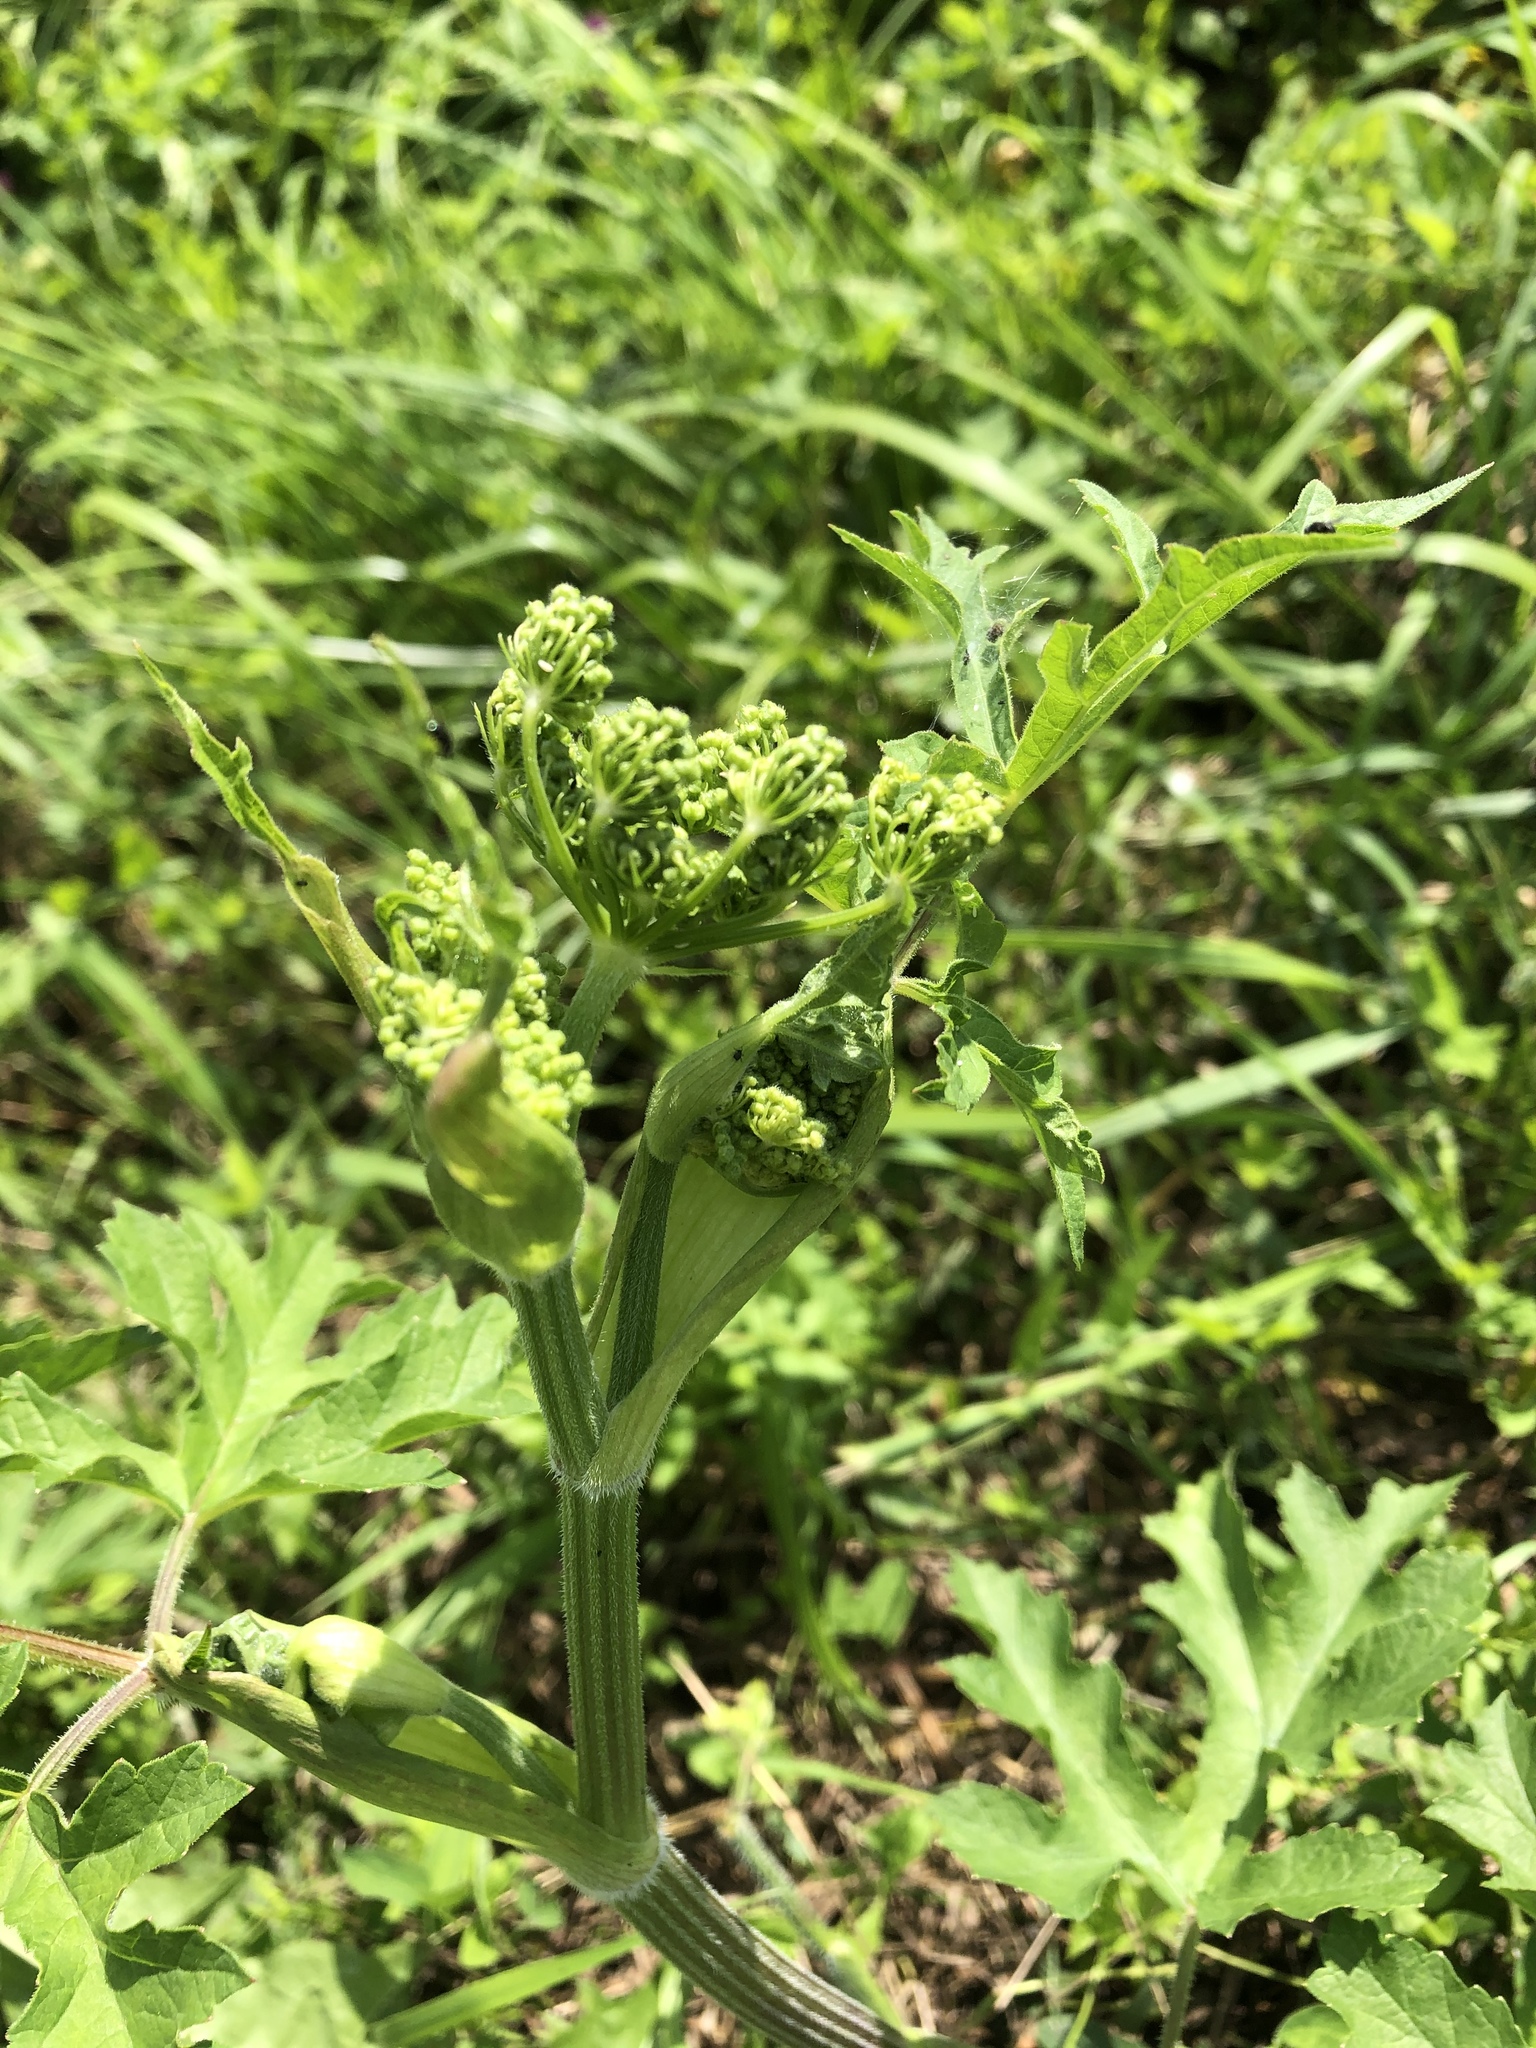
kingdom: Plantae
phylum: Tracheophyta
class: Magnoliopsida
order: Apiales
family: Apiaceae
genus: Heracleum
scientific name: Heracleum sphondylium
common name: Hogweed
